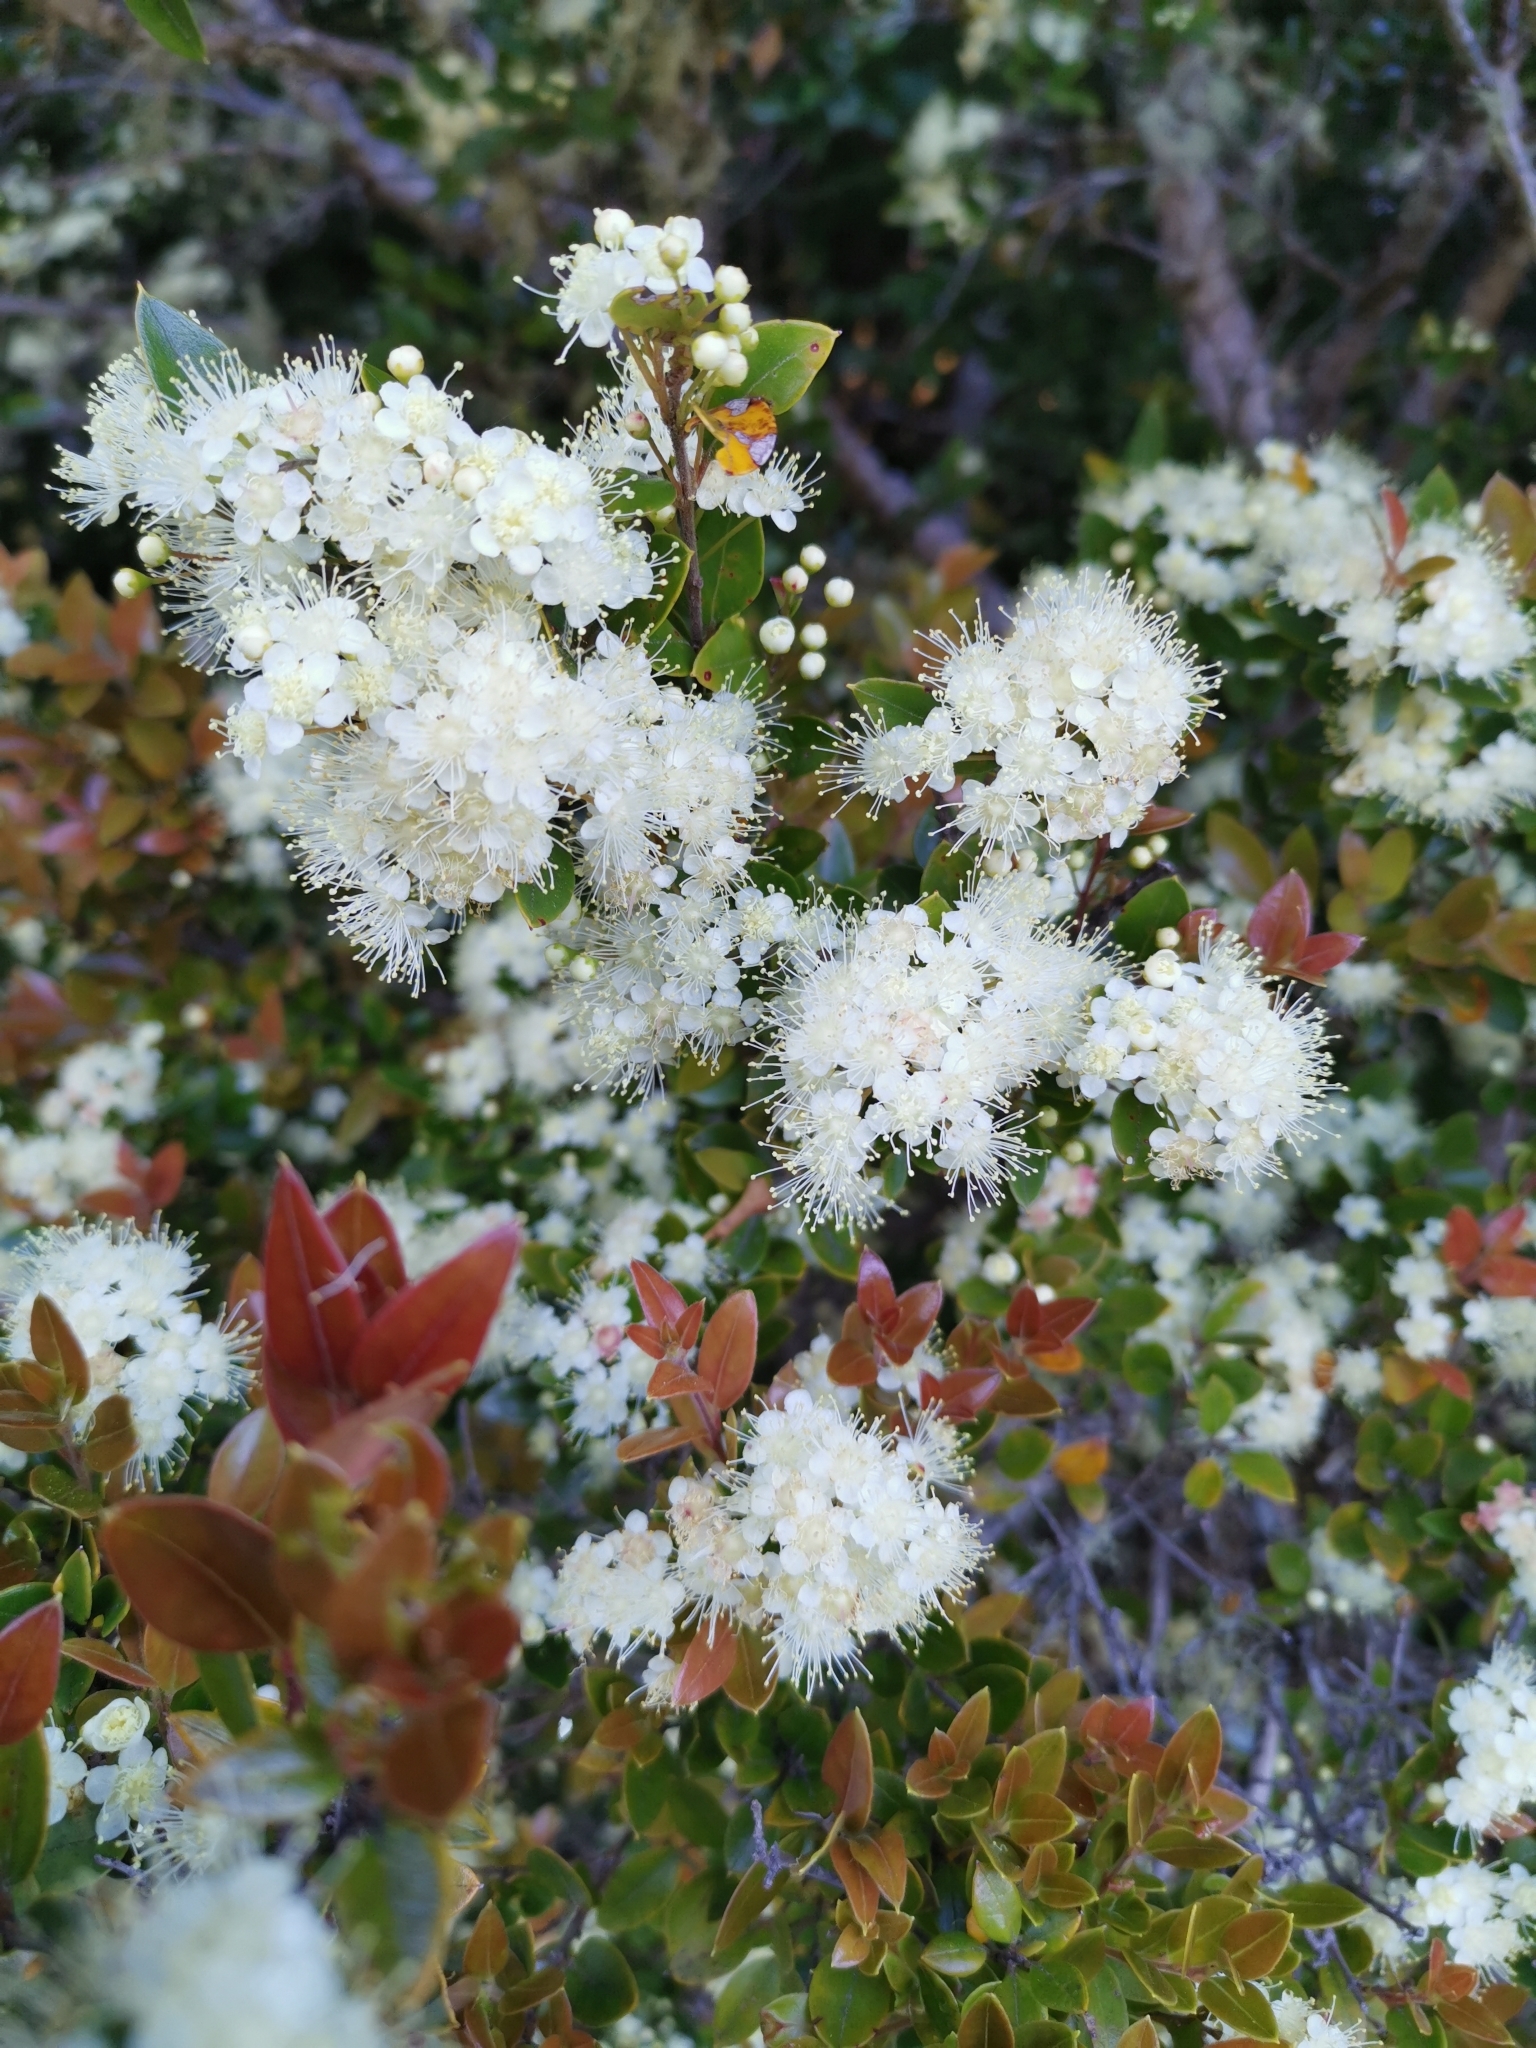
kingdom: Plantae
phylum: Tracheophyta
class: Magnoliopsida
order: Myrtales
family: Myrtaceae
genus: Amomyrtus
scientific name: Amomyrtus luma
